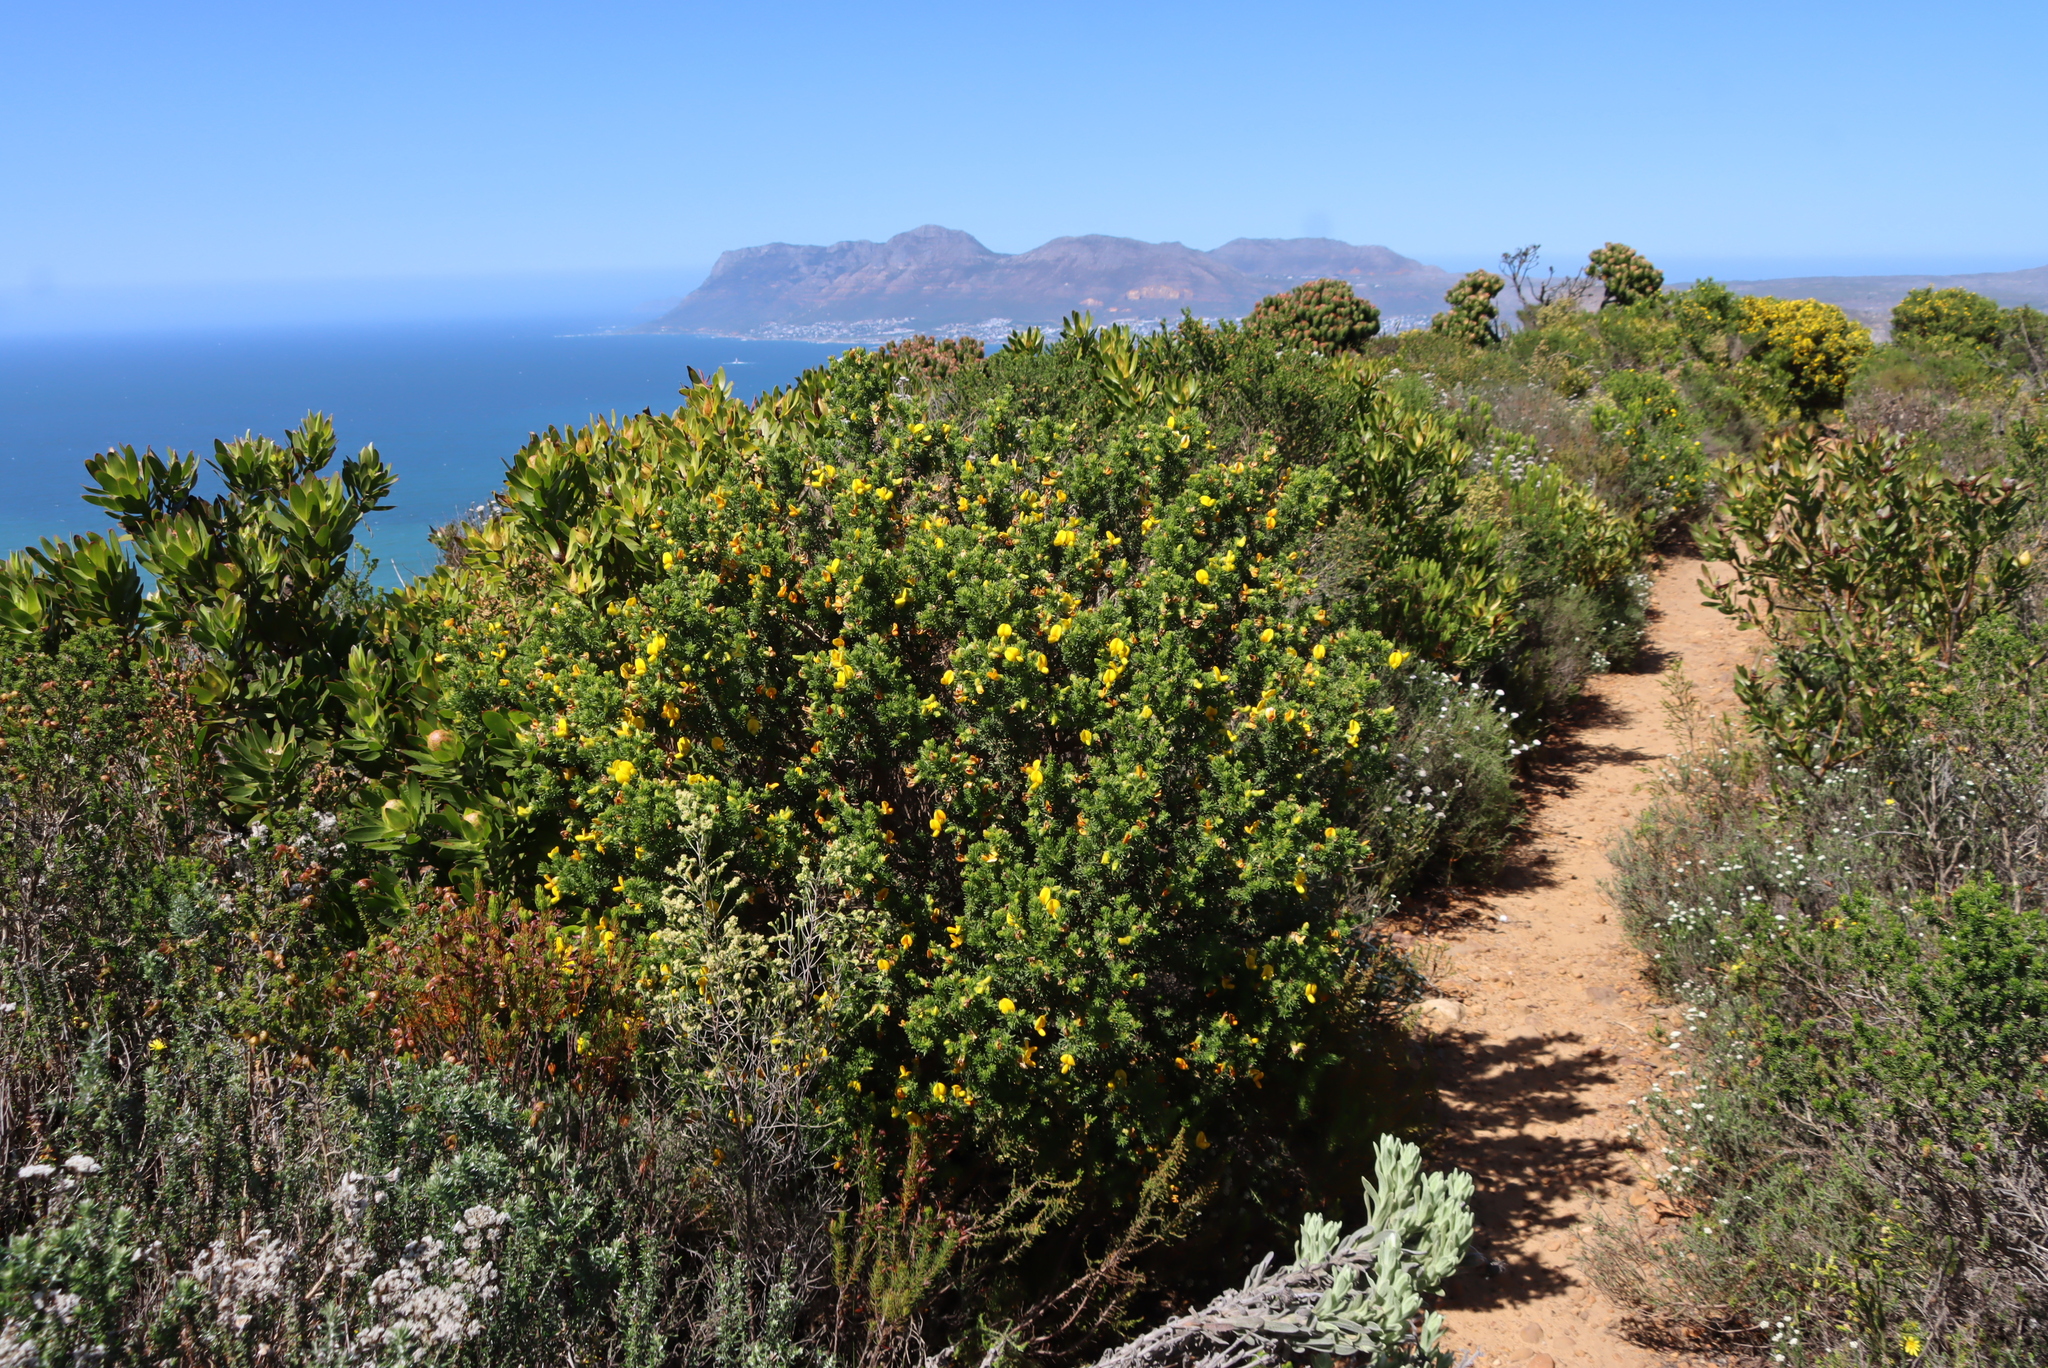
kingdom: Plantae
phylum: Tracheophyta
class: Magnoliopsida
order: Fabales
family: Fabaceae
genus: Aspalathus
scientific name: Aspalathus capensis
